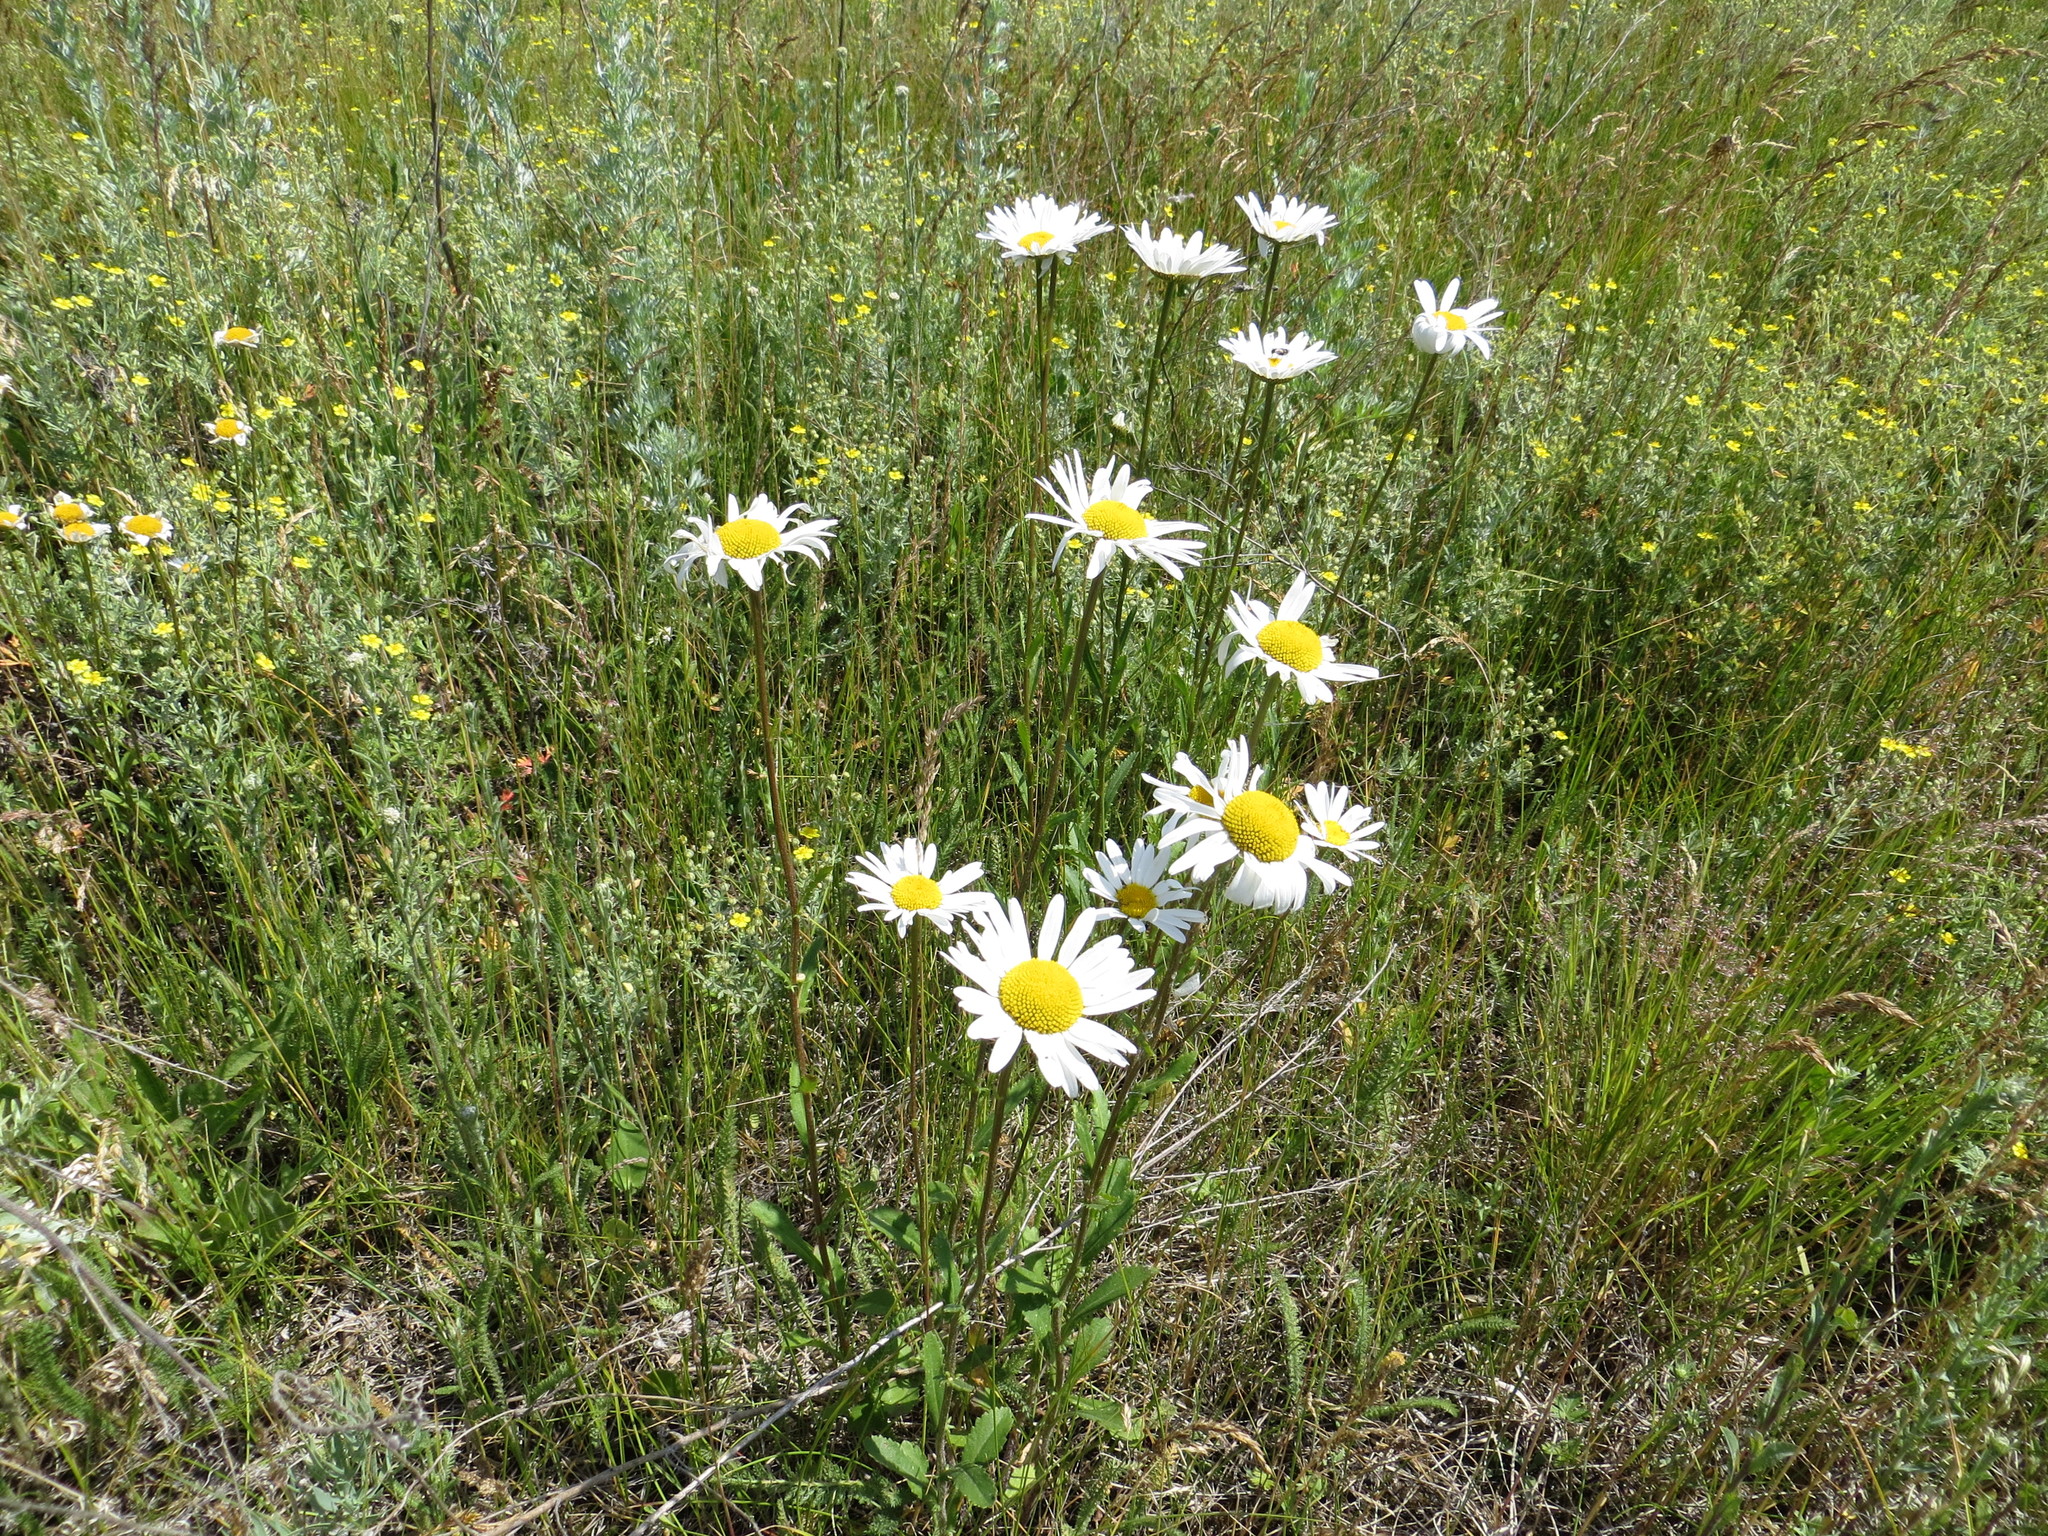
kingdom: Plantae
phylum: Tracheophyta
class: Magnoliopsida
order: Asterales
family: Asteraceae
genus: Leucanthemum
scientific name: Leucanthemum vulgare
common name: Oxeye daisy
